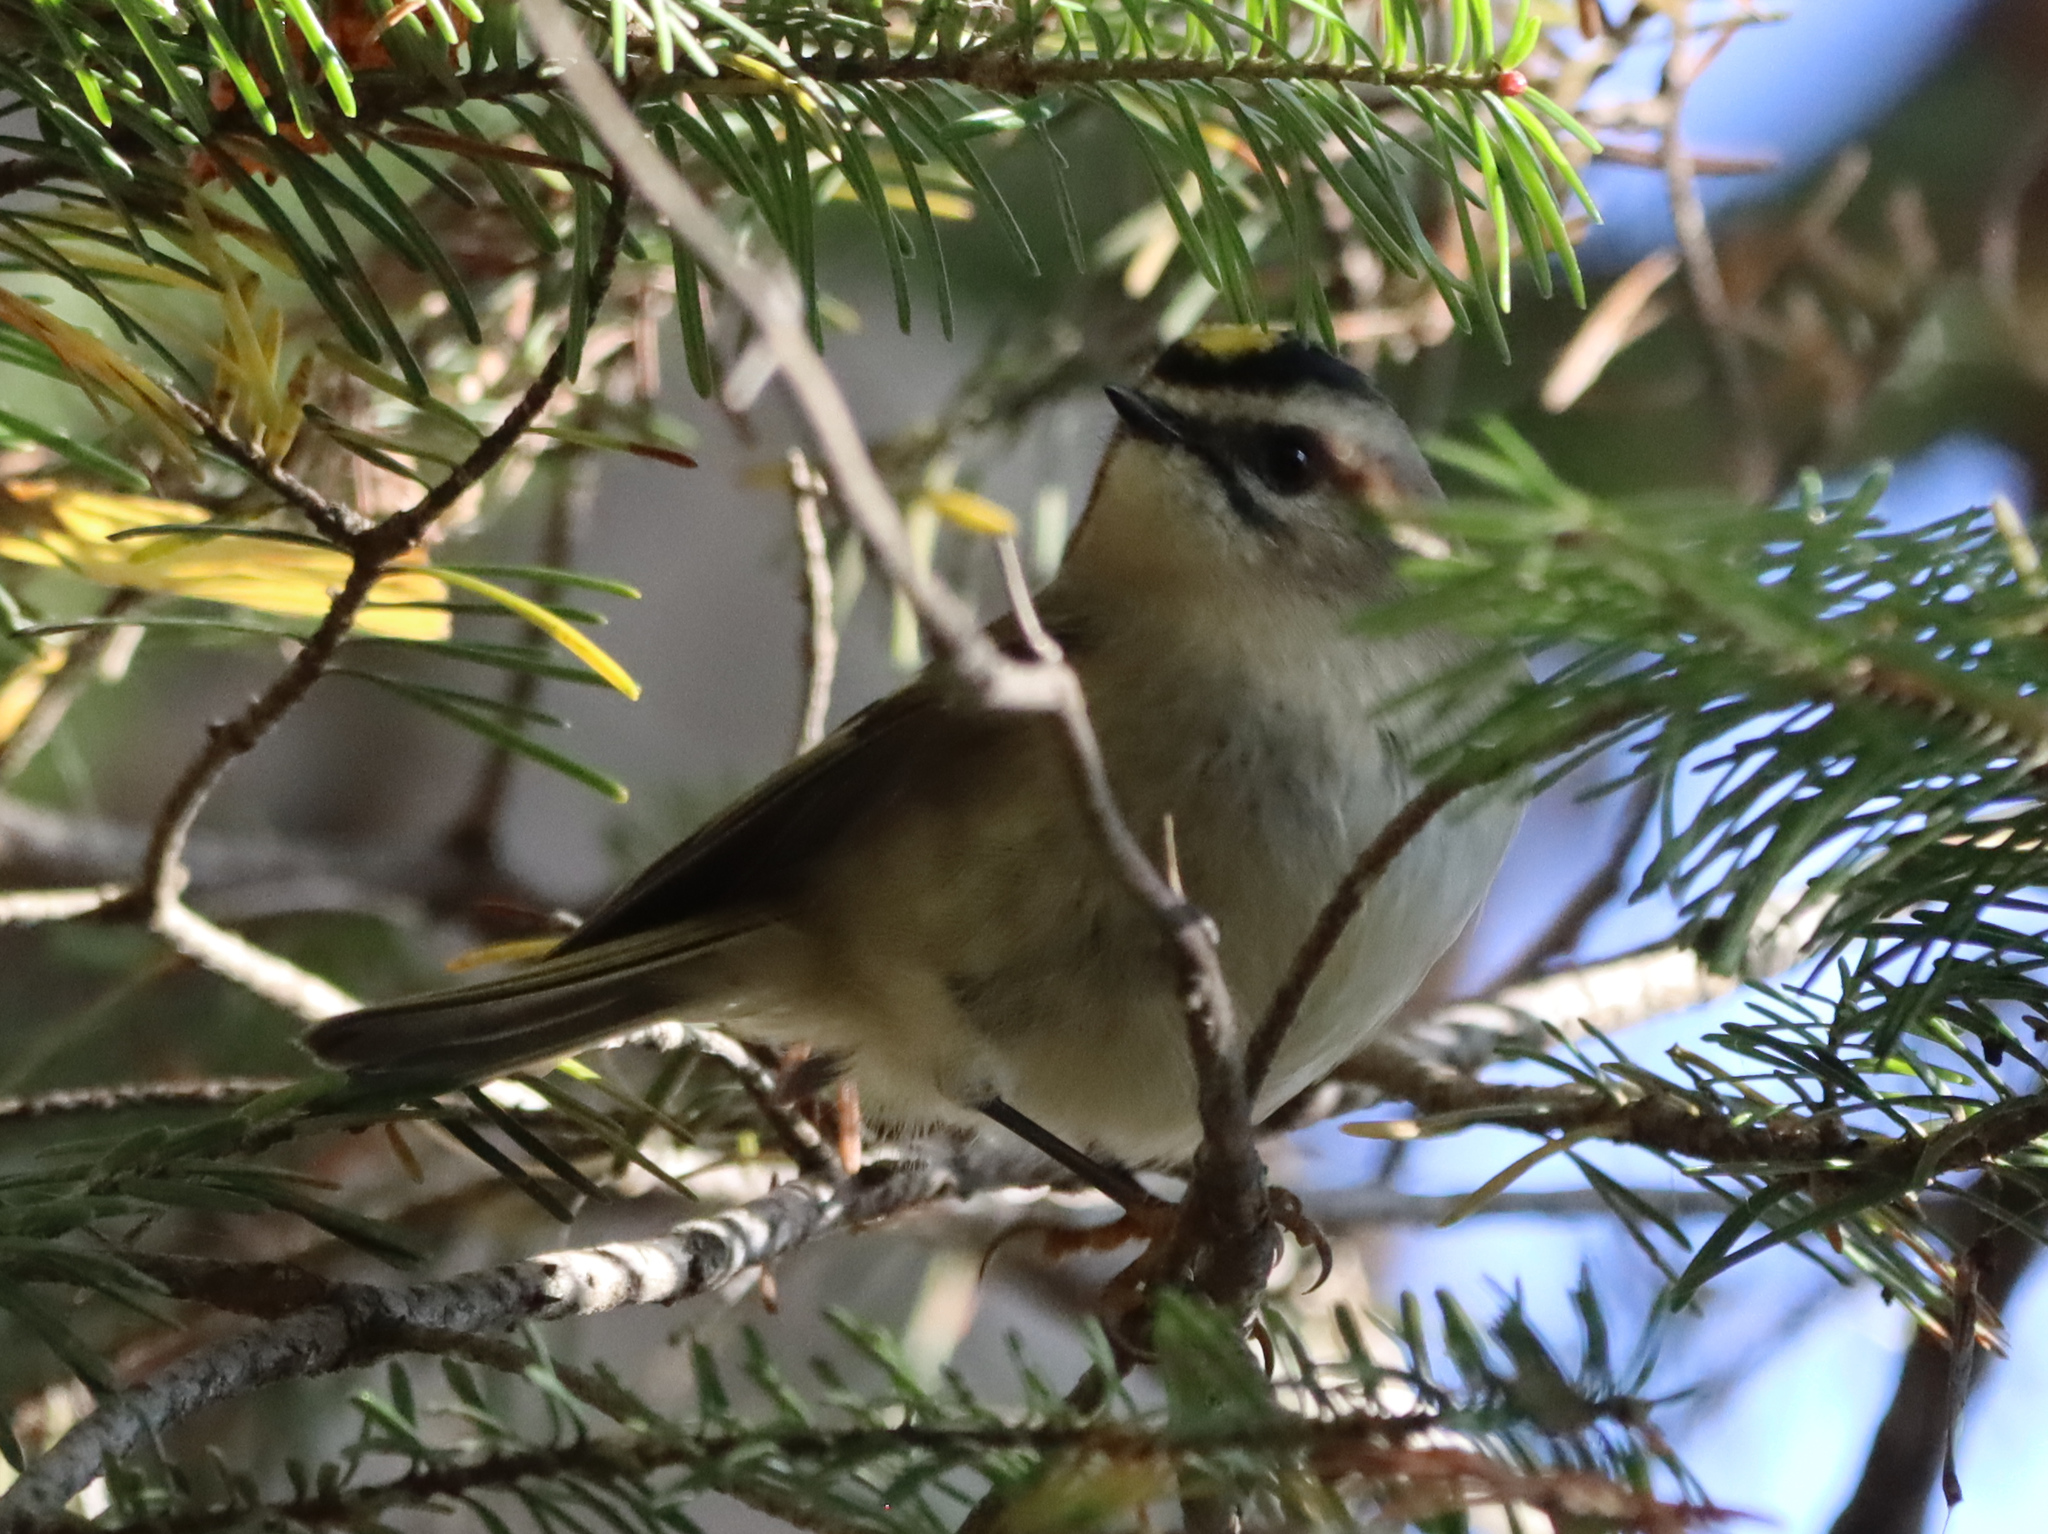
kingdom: Animalia
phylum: Chordata
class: Aves
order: Passeriformes
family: Regulidae
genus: Regulus
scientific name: Regulus satrapa
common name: Golden-crowned kinglet
